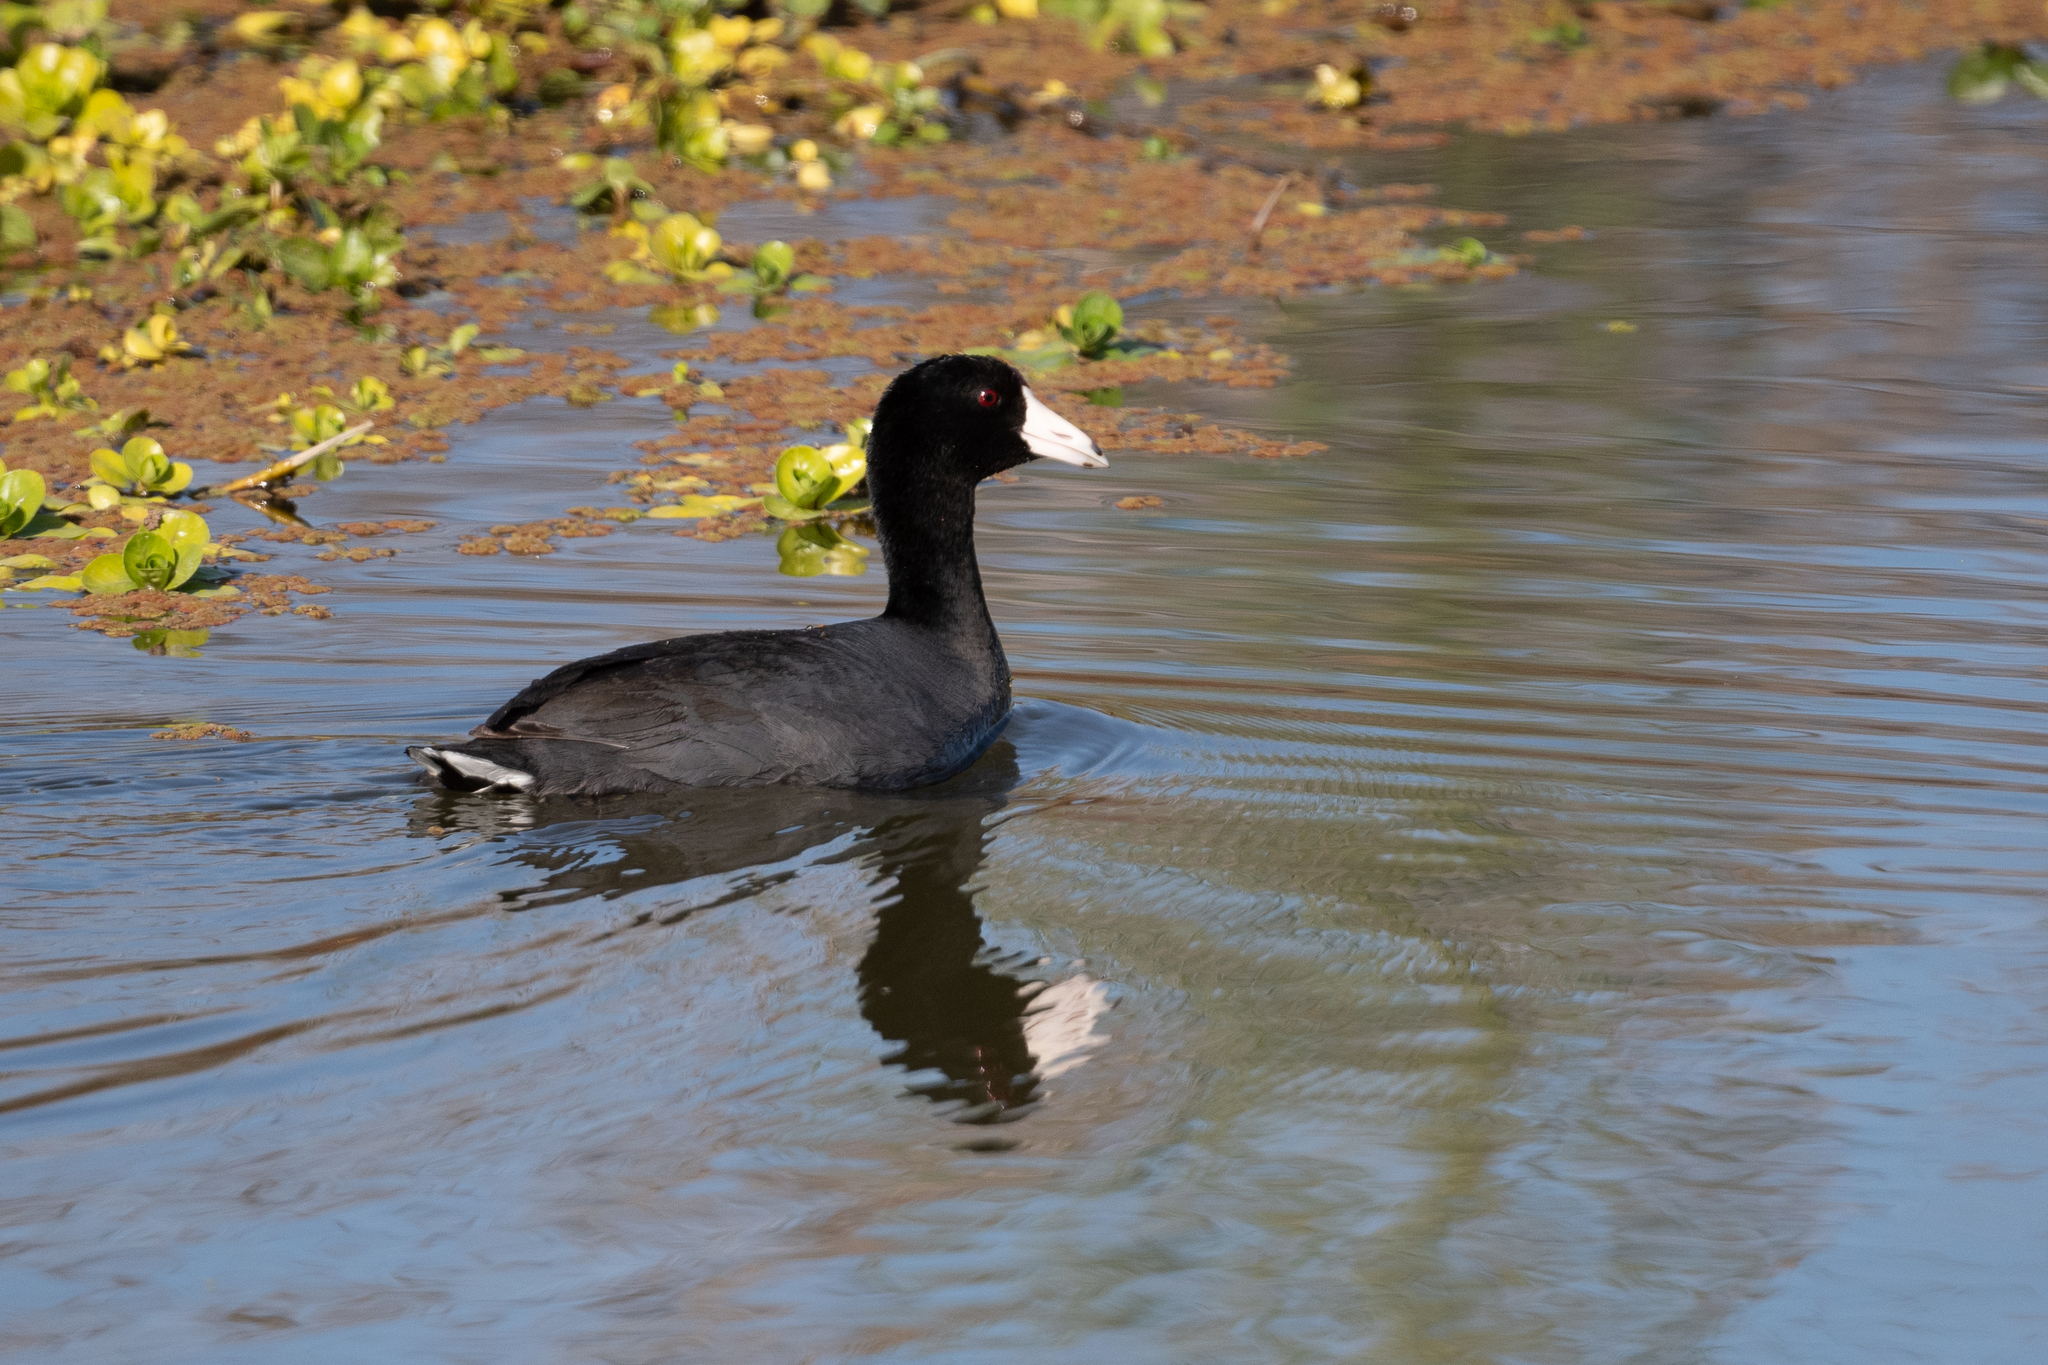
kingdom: Animalia
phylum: Chordata
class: Aves
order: Gruiformes
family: Rallidae
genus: Fulica
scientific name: Fulica americana
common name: American coot
